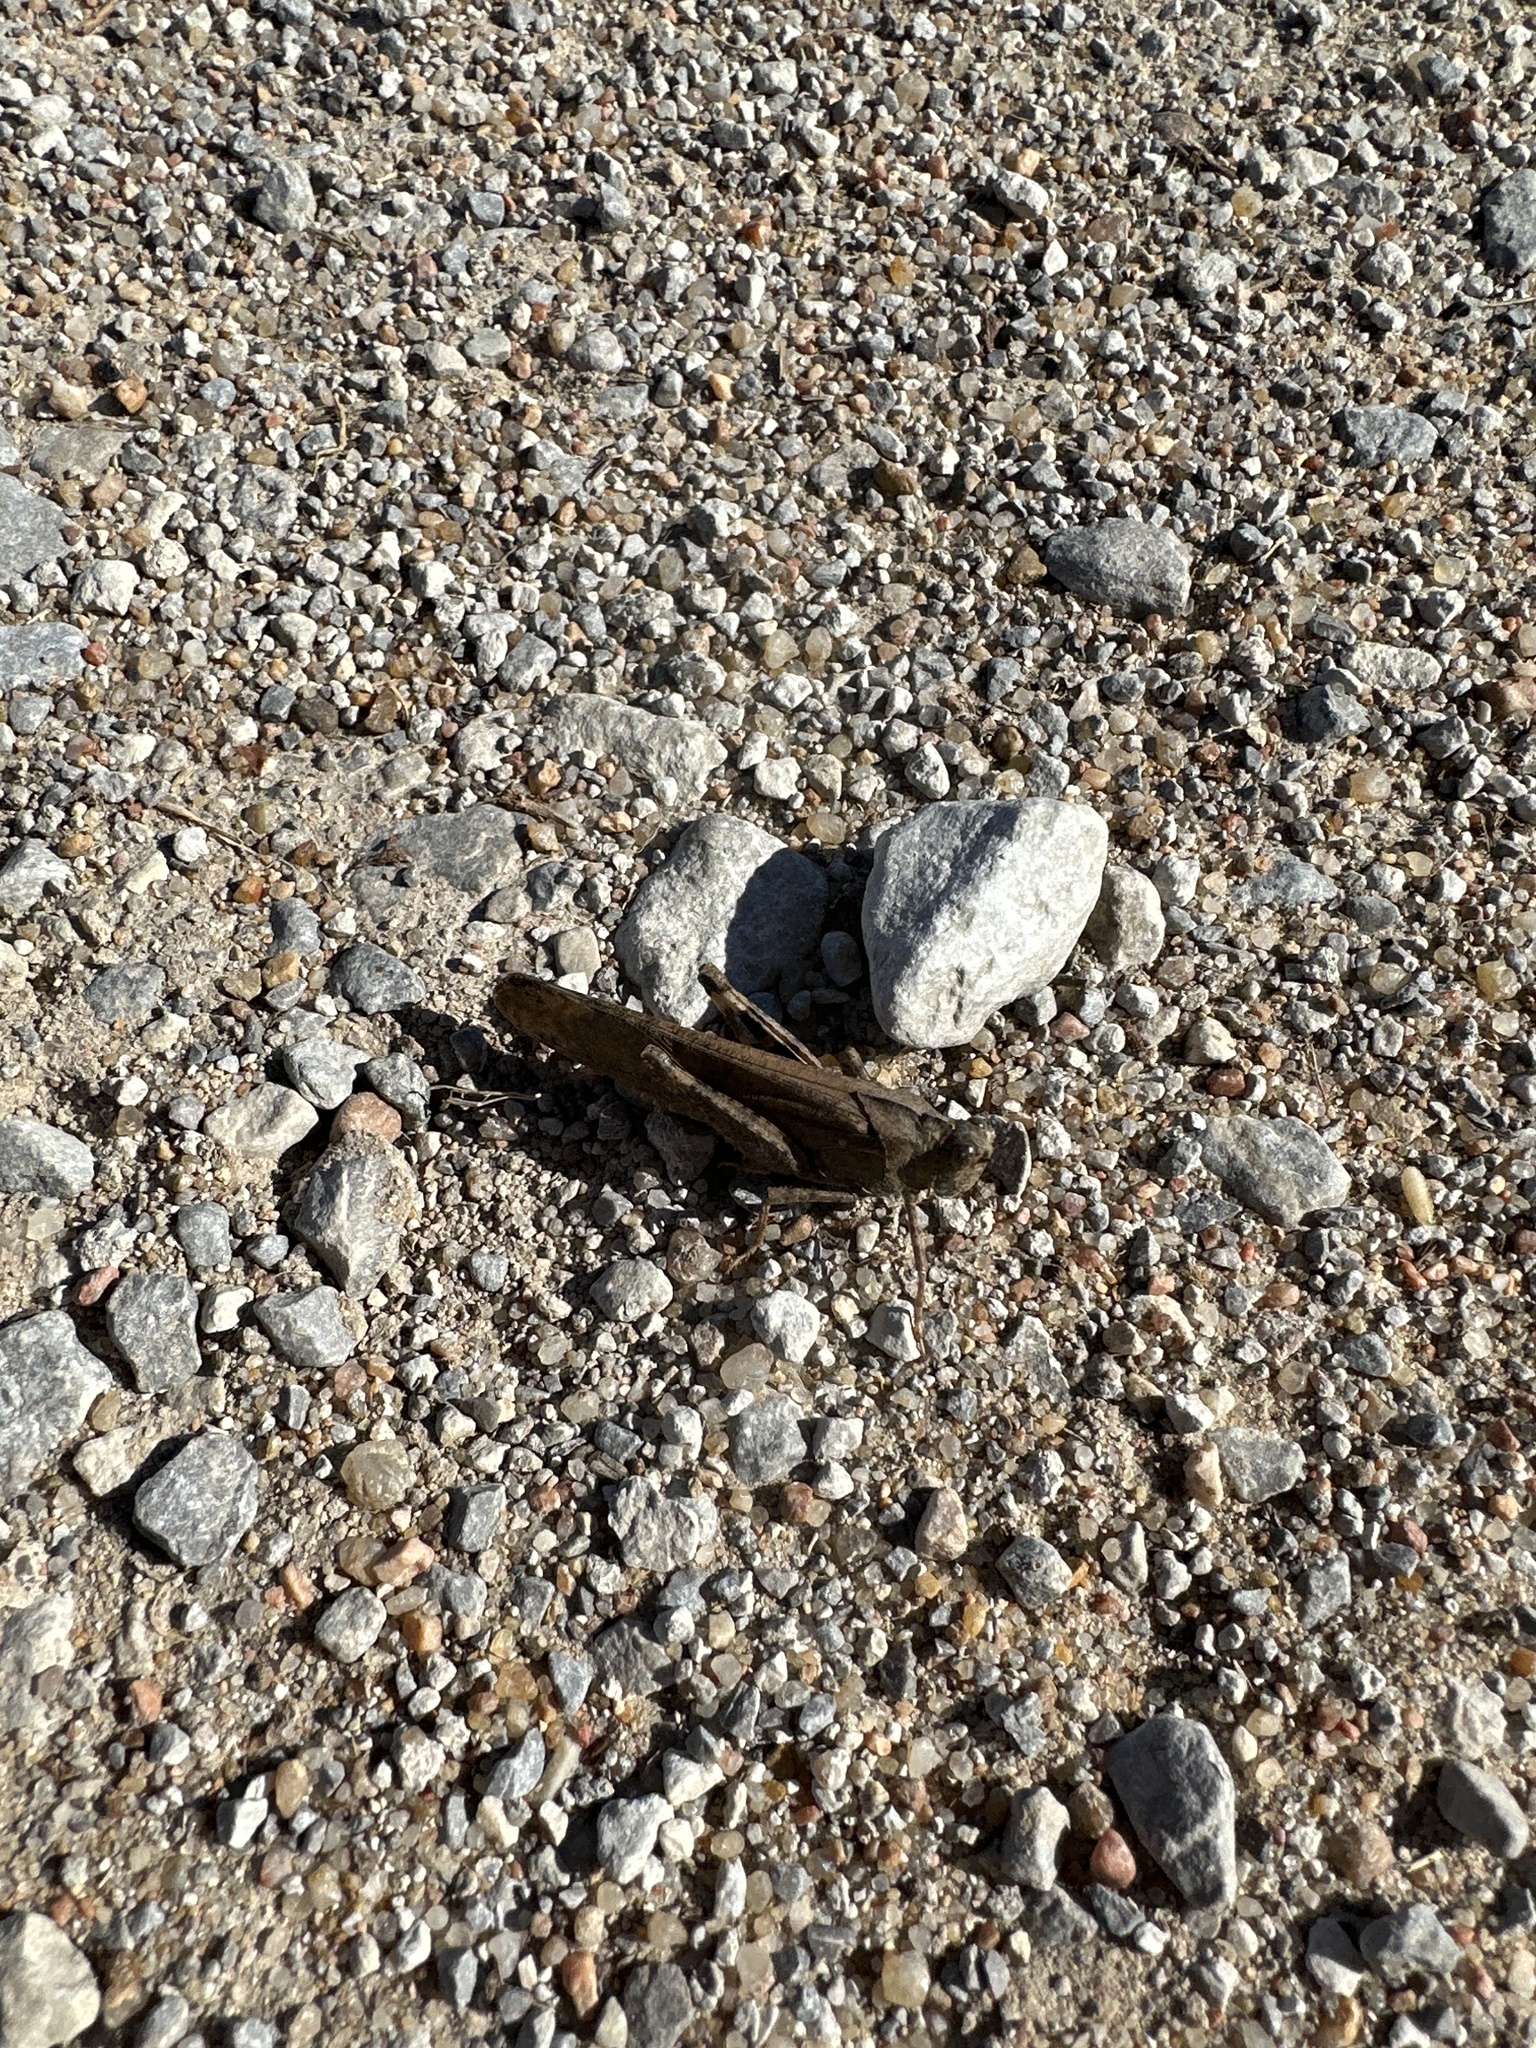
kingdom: Animalia
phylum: Arthropoda
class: Insecta
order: Orthoptera
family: Acrididae
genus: Dissosteira
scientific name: Dissosteira carolina
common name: Carolina grasshopper
